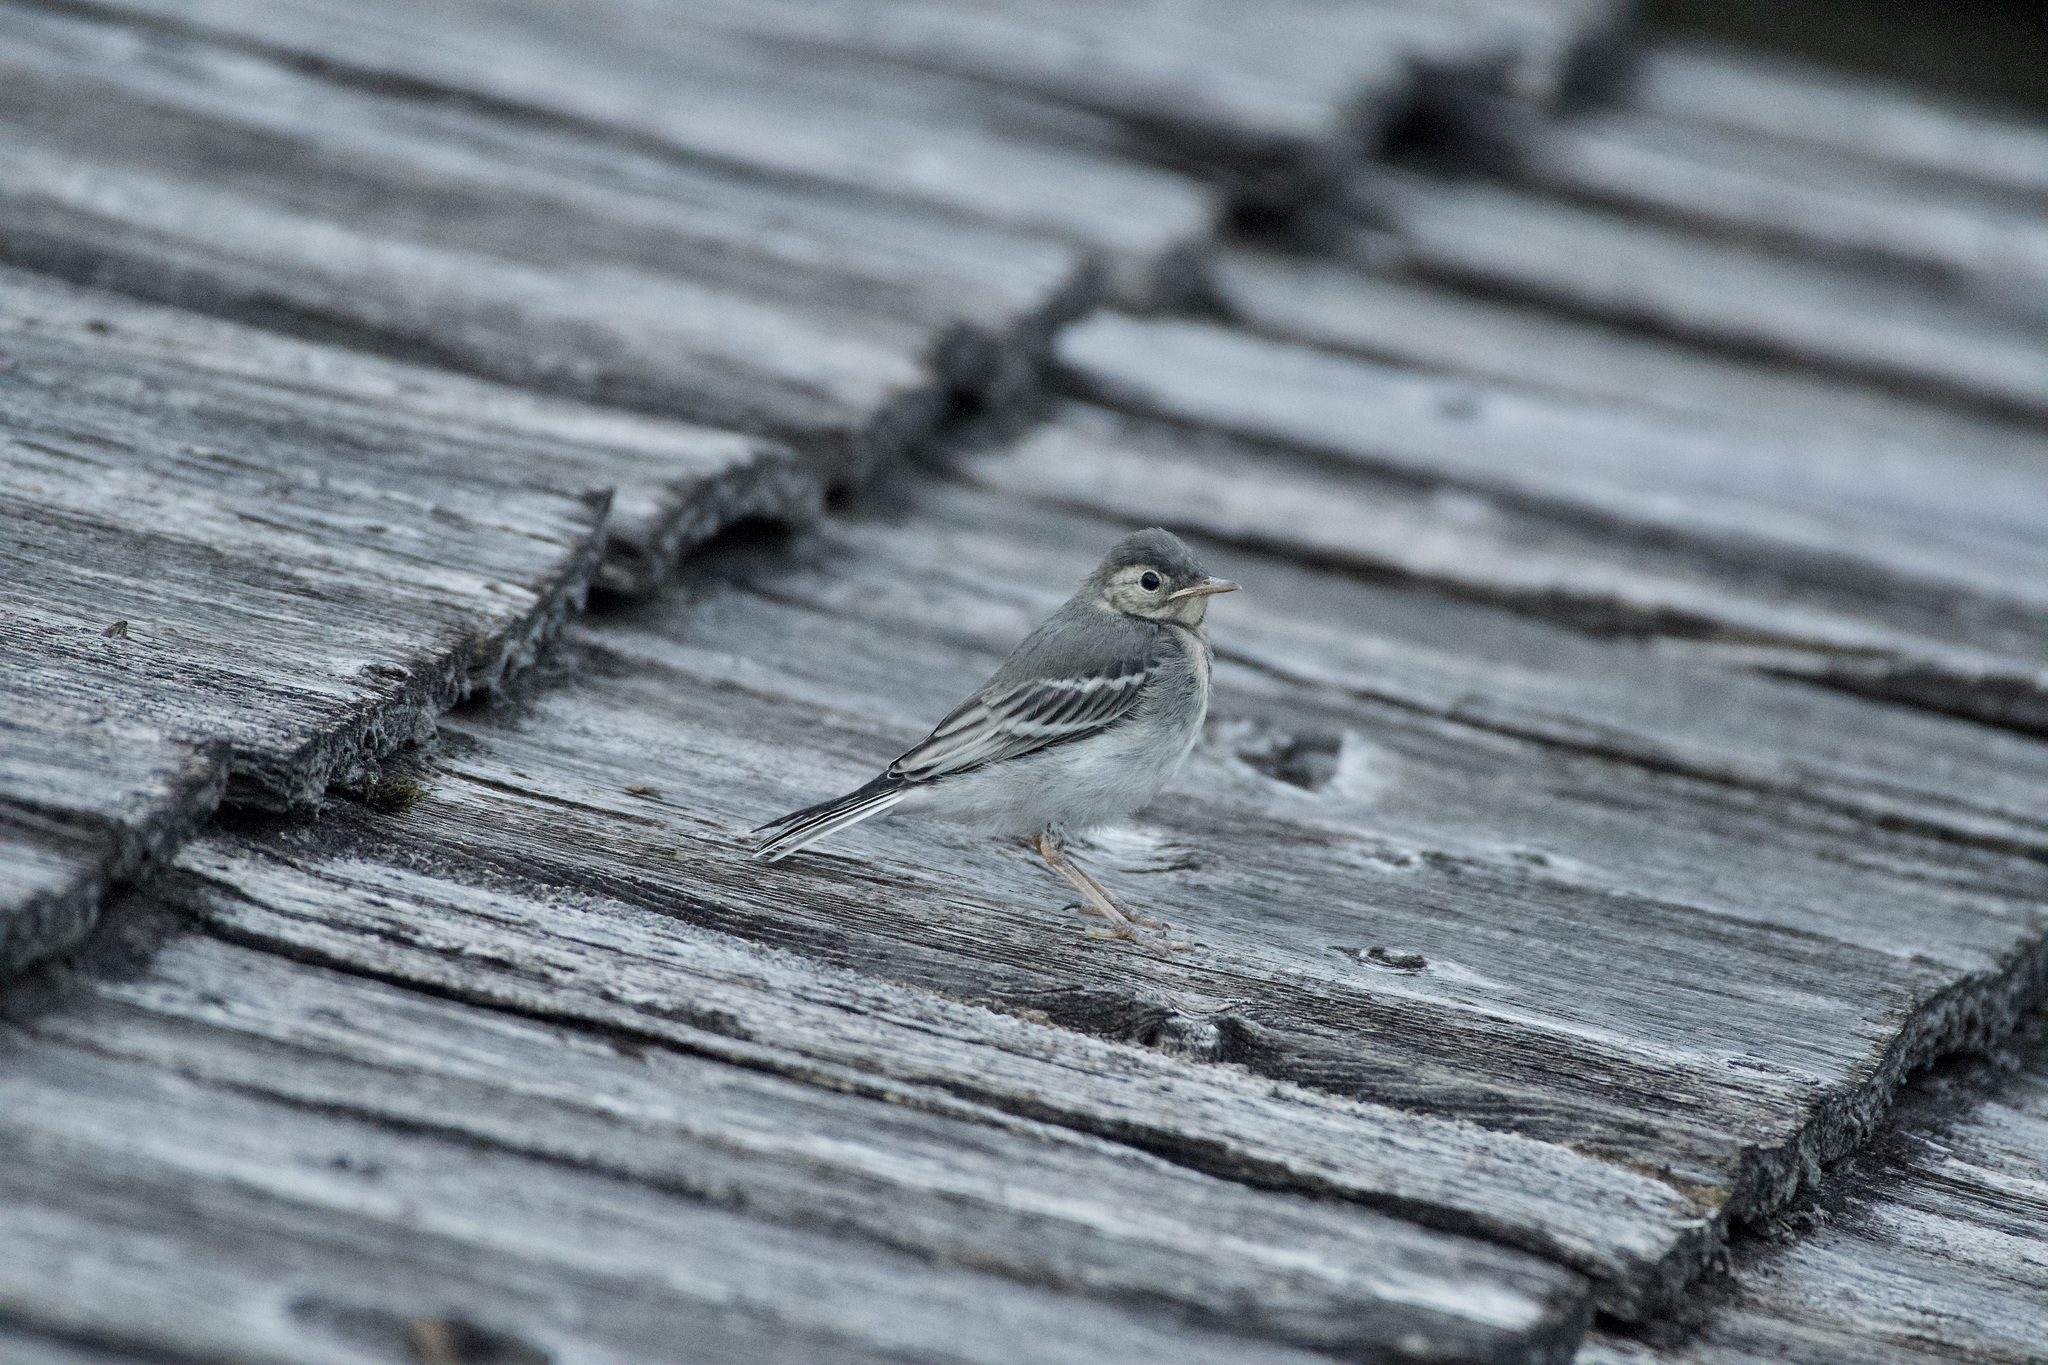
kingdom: Animalia
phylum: Chordata
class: Aves
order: Passeriformes
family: Motacillidae
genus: Motacilla
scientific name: Motacilla alba
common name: White wagtail
